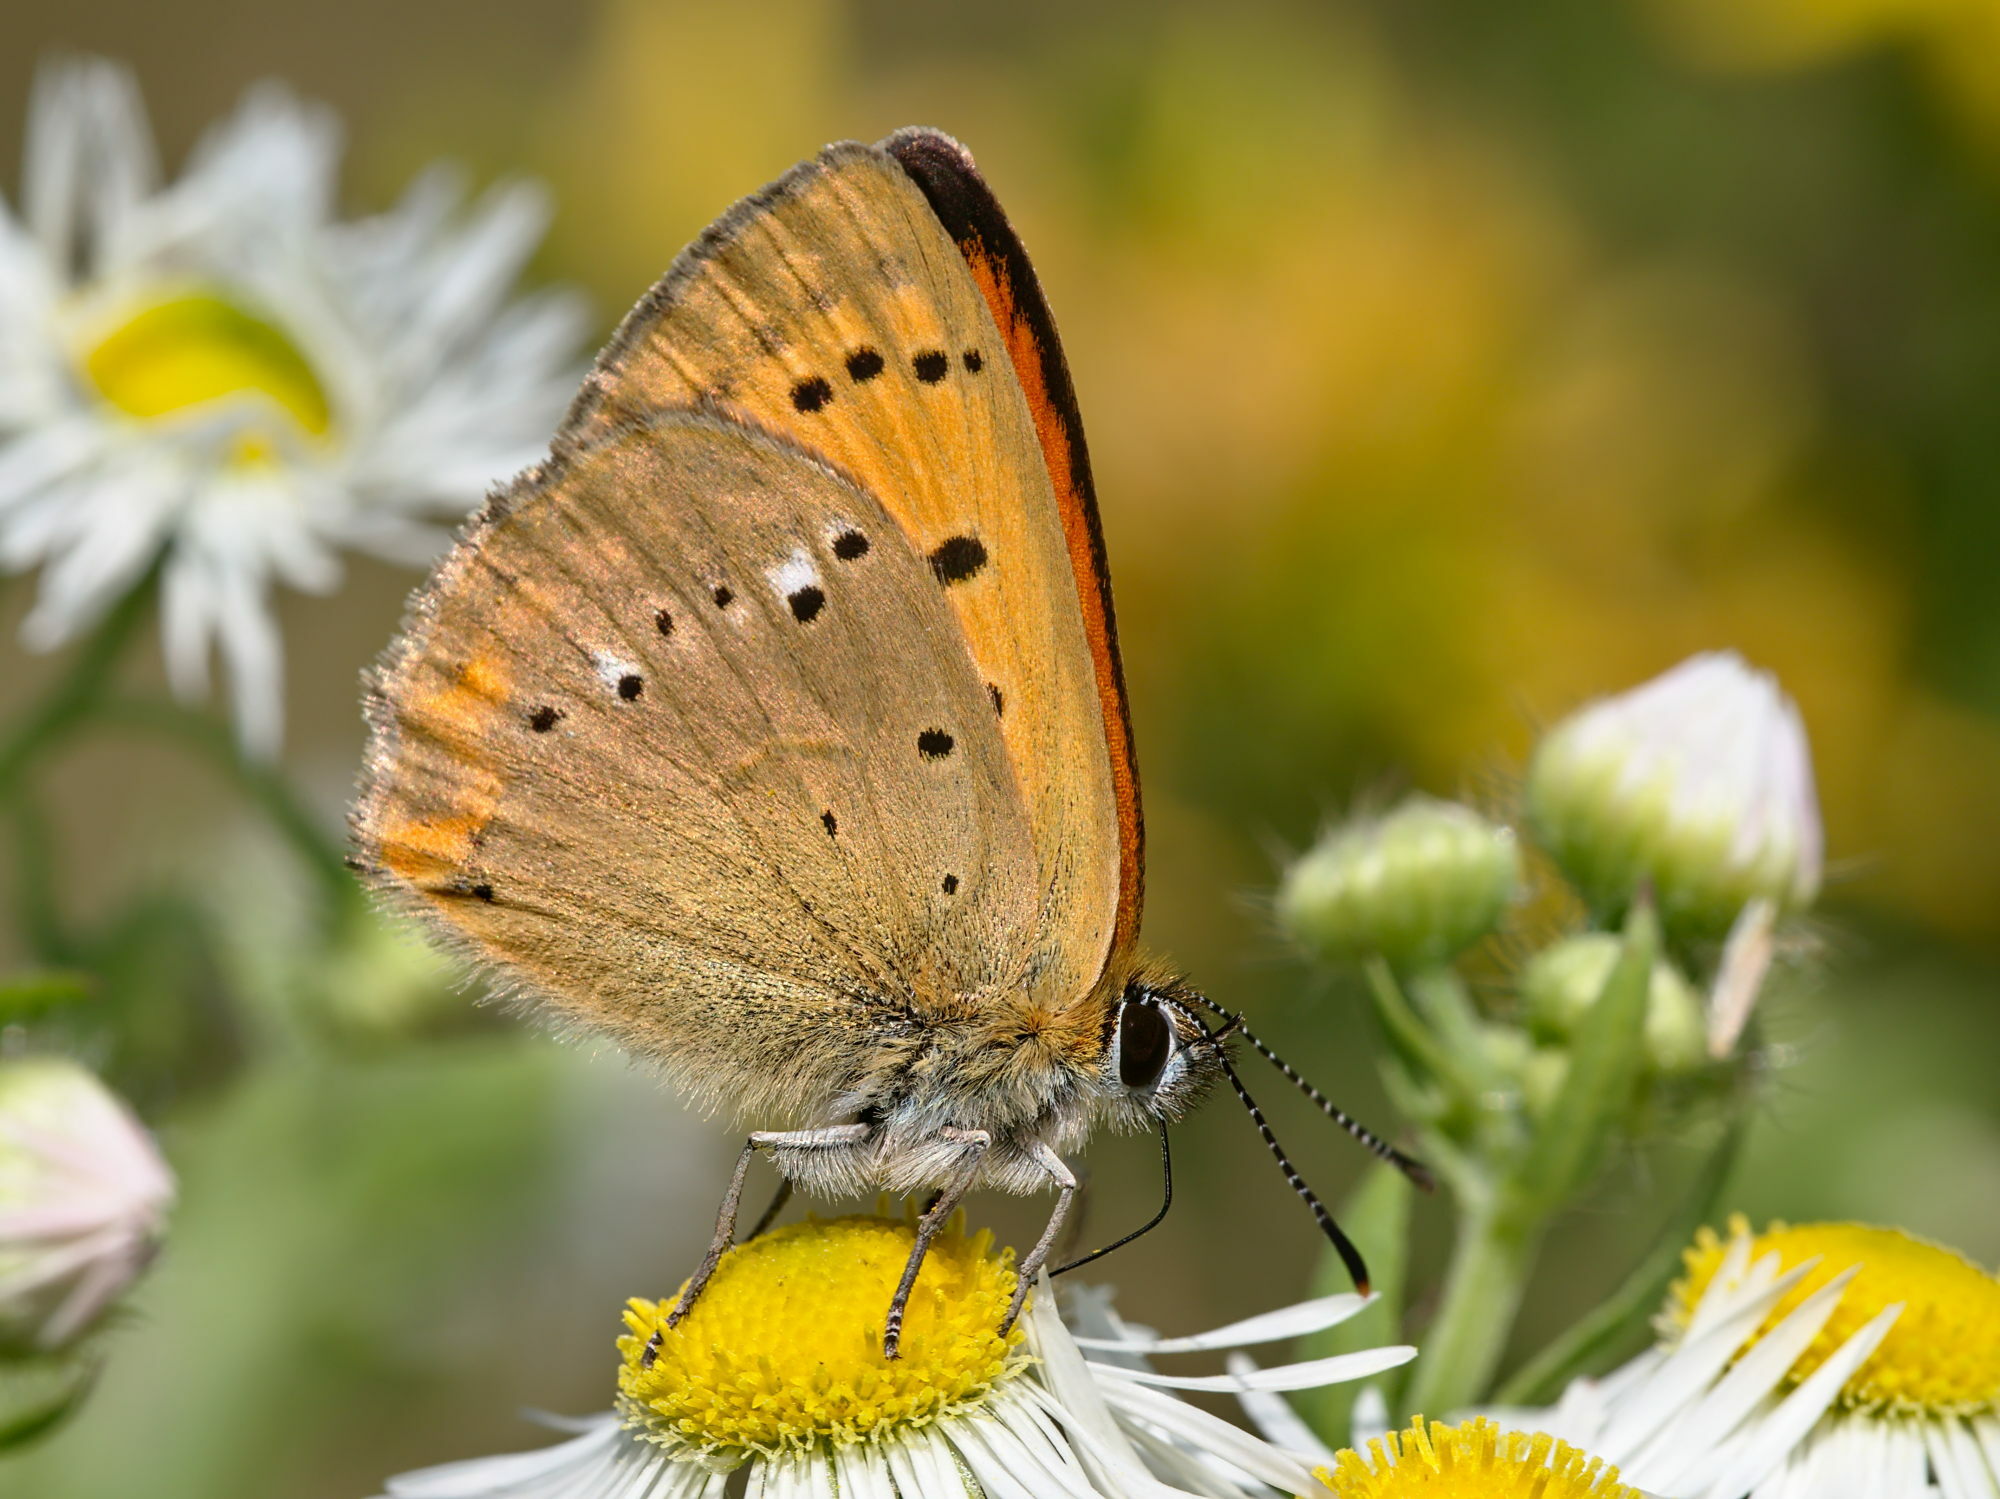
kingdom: Animalia
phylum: Arthropoda
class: Insecta
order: Lepidoptera
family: Lycaenidae
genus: Lycaena
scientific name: Lycaena virgaureae
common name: Scarce copper
